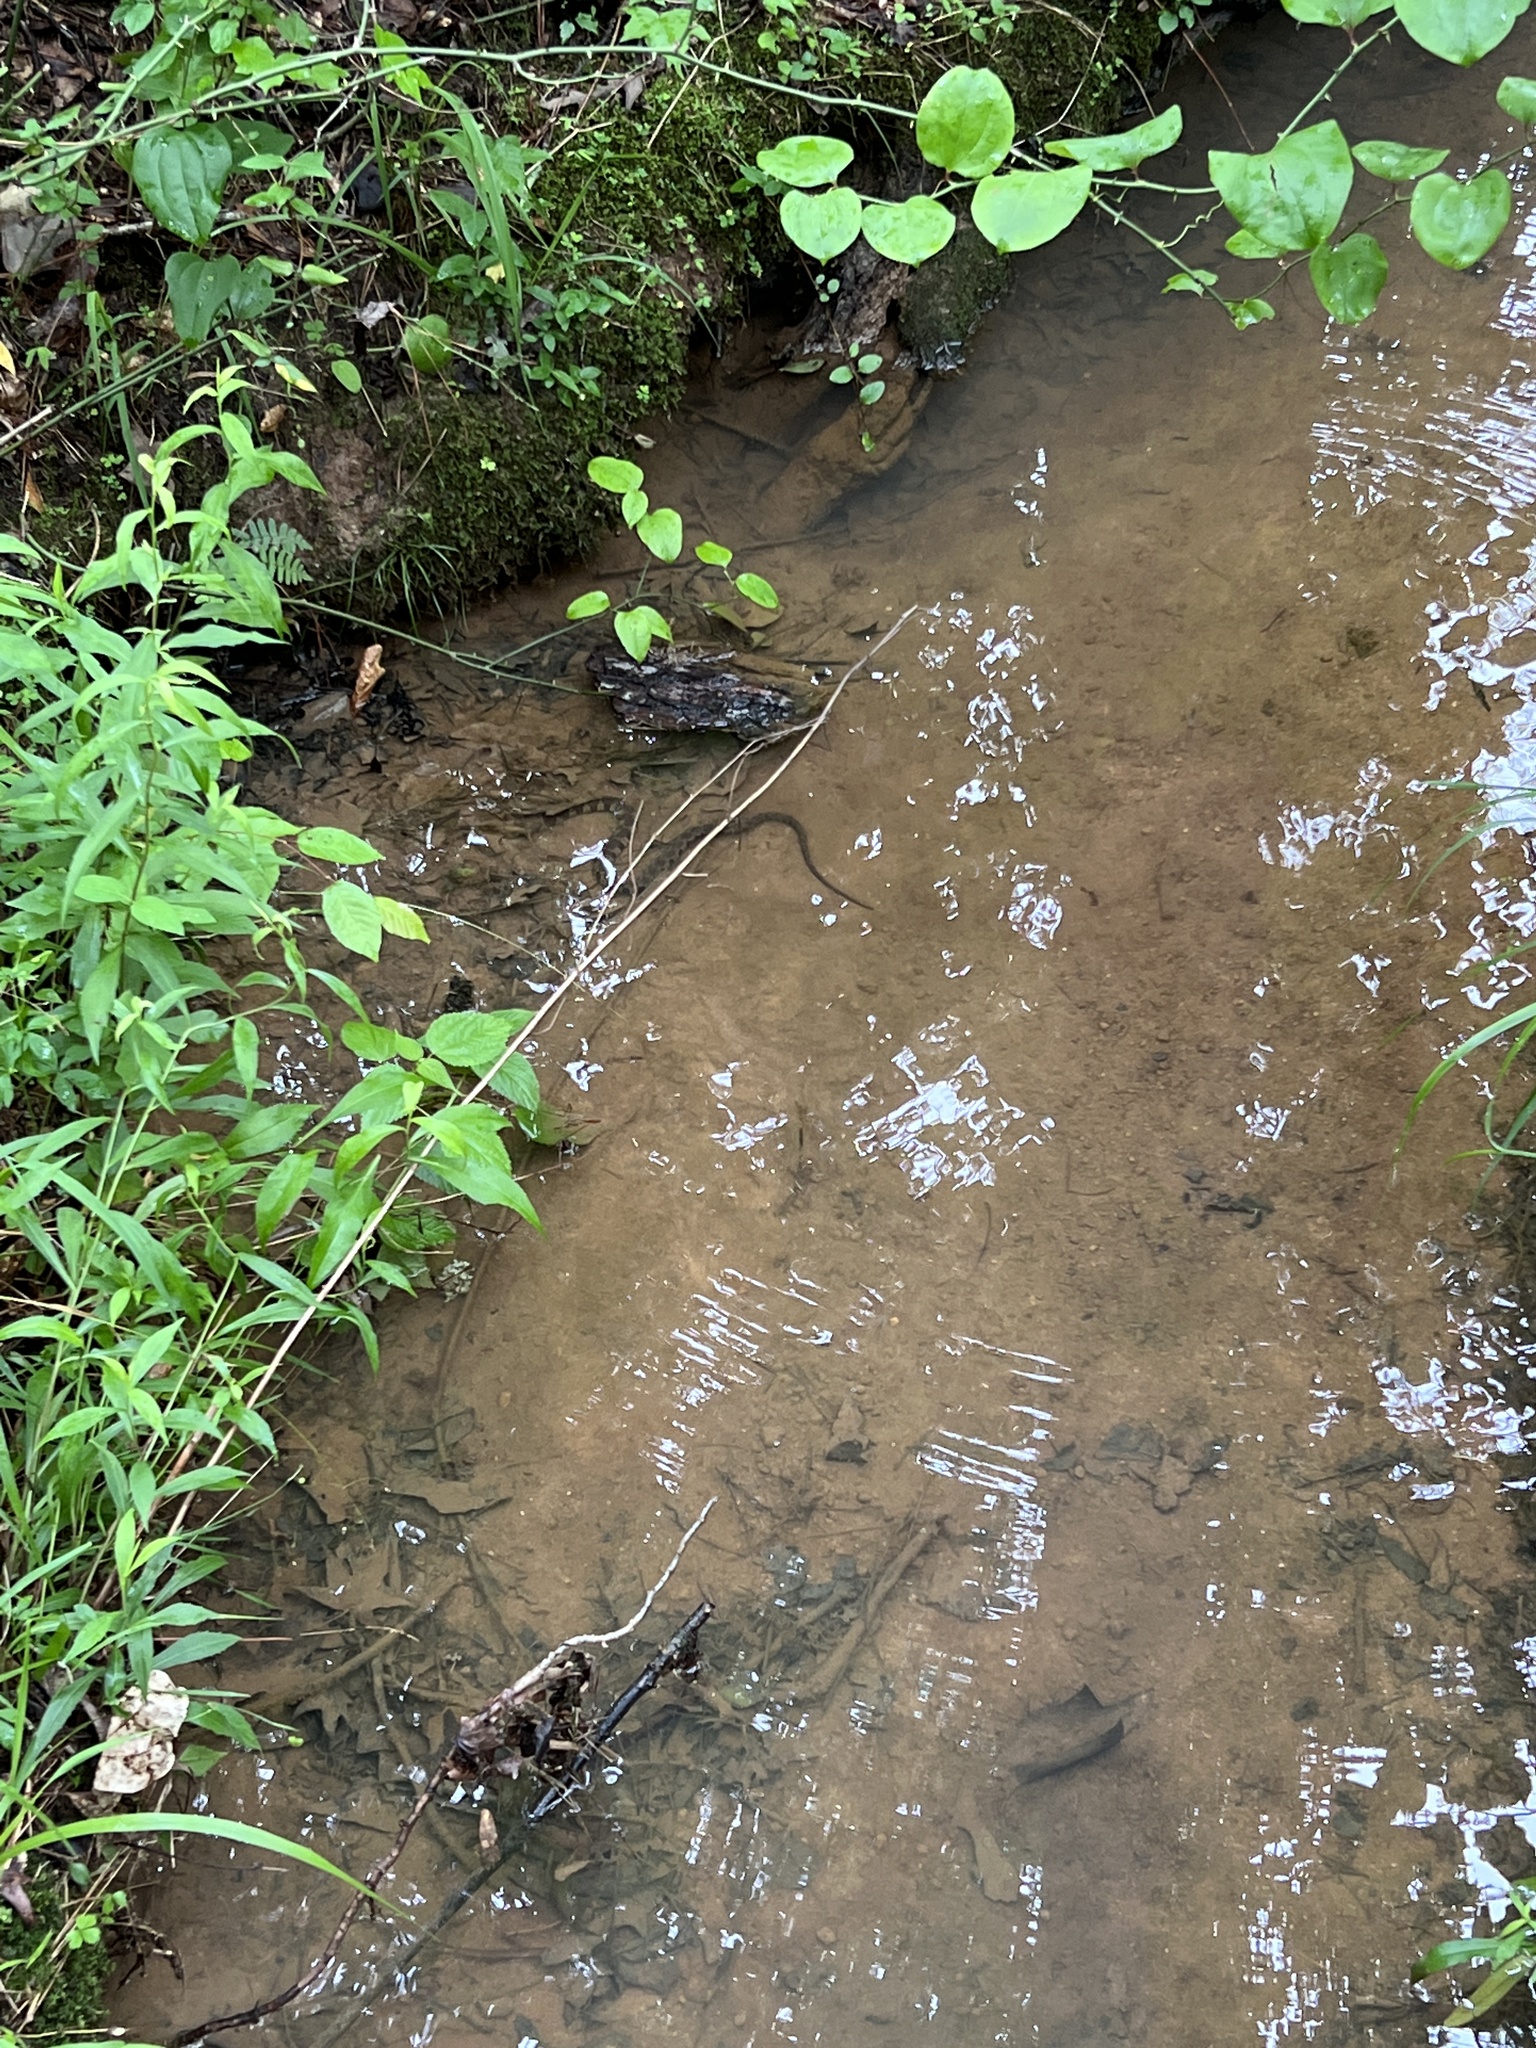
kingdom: Animalia
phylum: Chordata
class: Squamata
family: Colubridae
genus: Nerodia
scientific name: Nerodia sipedon
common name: Northern water snake
